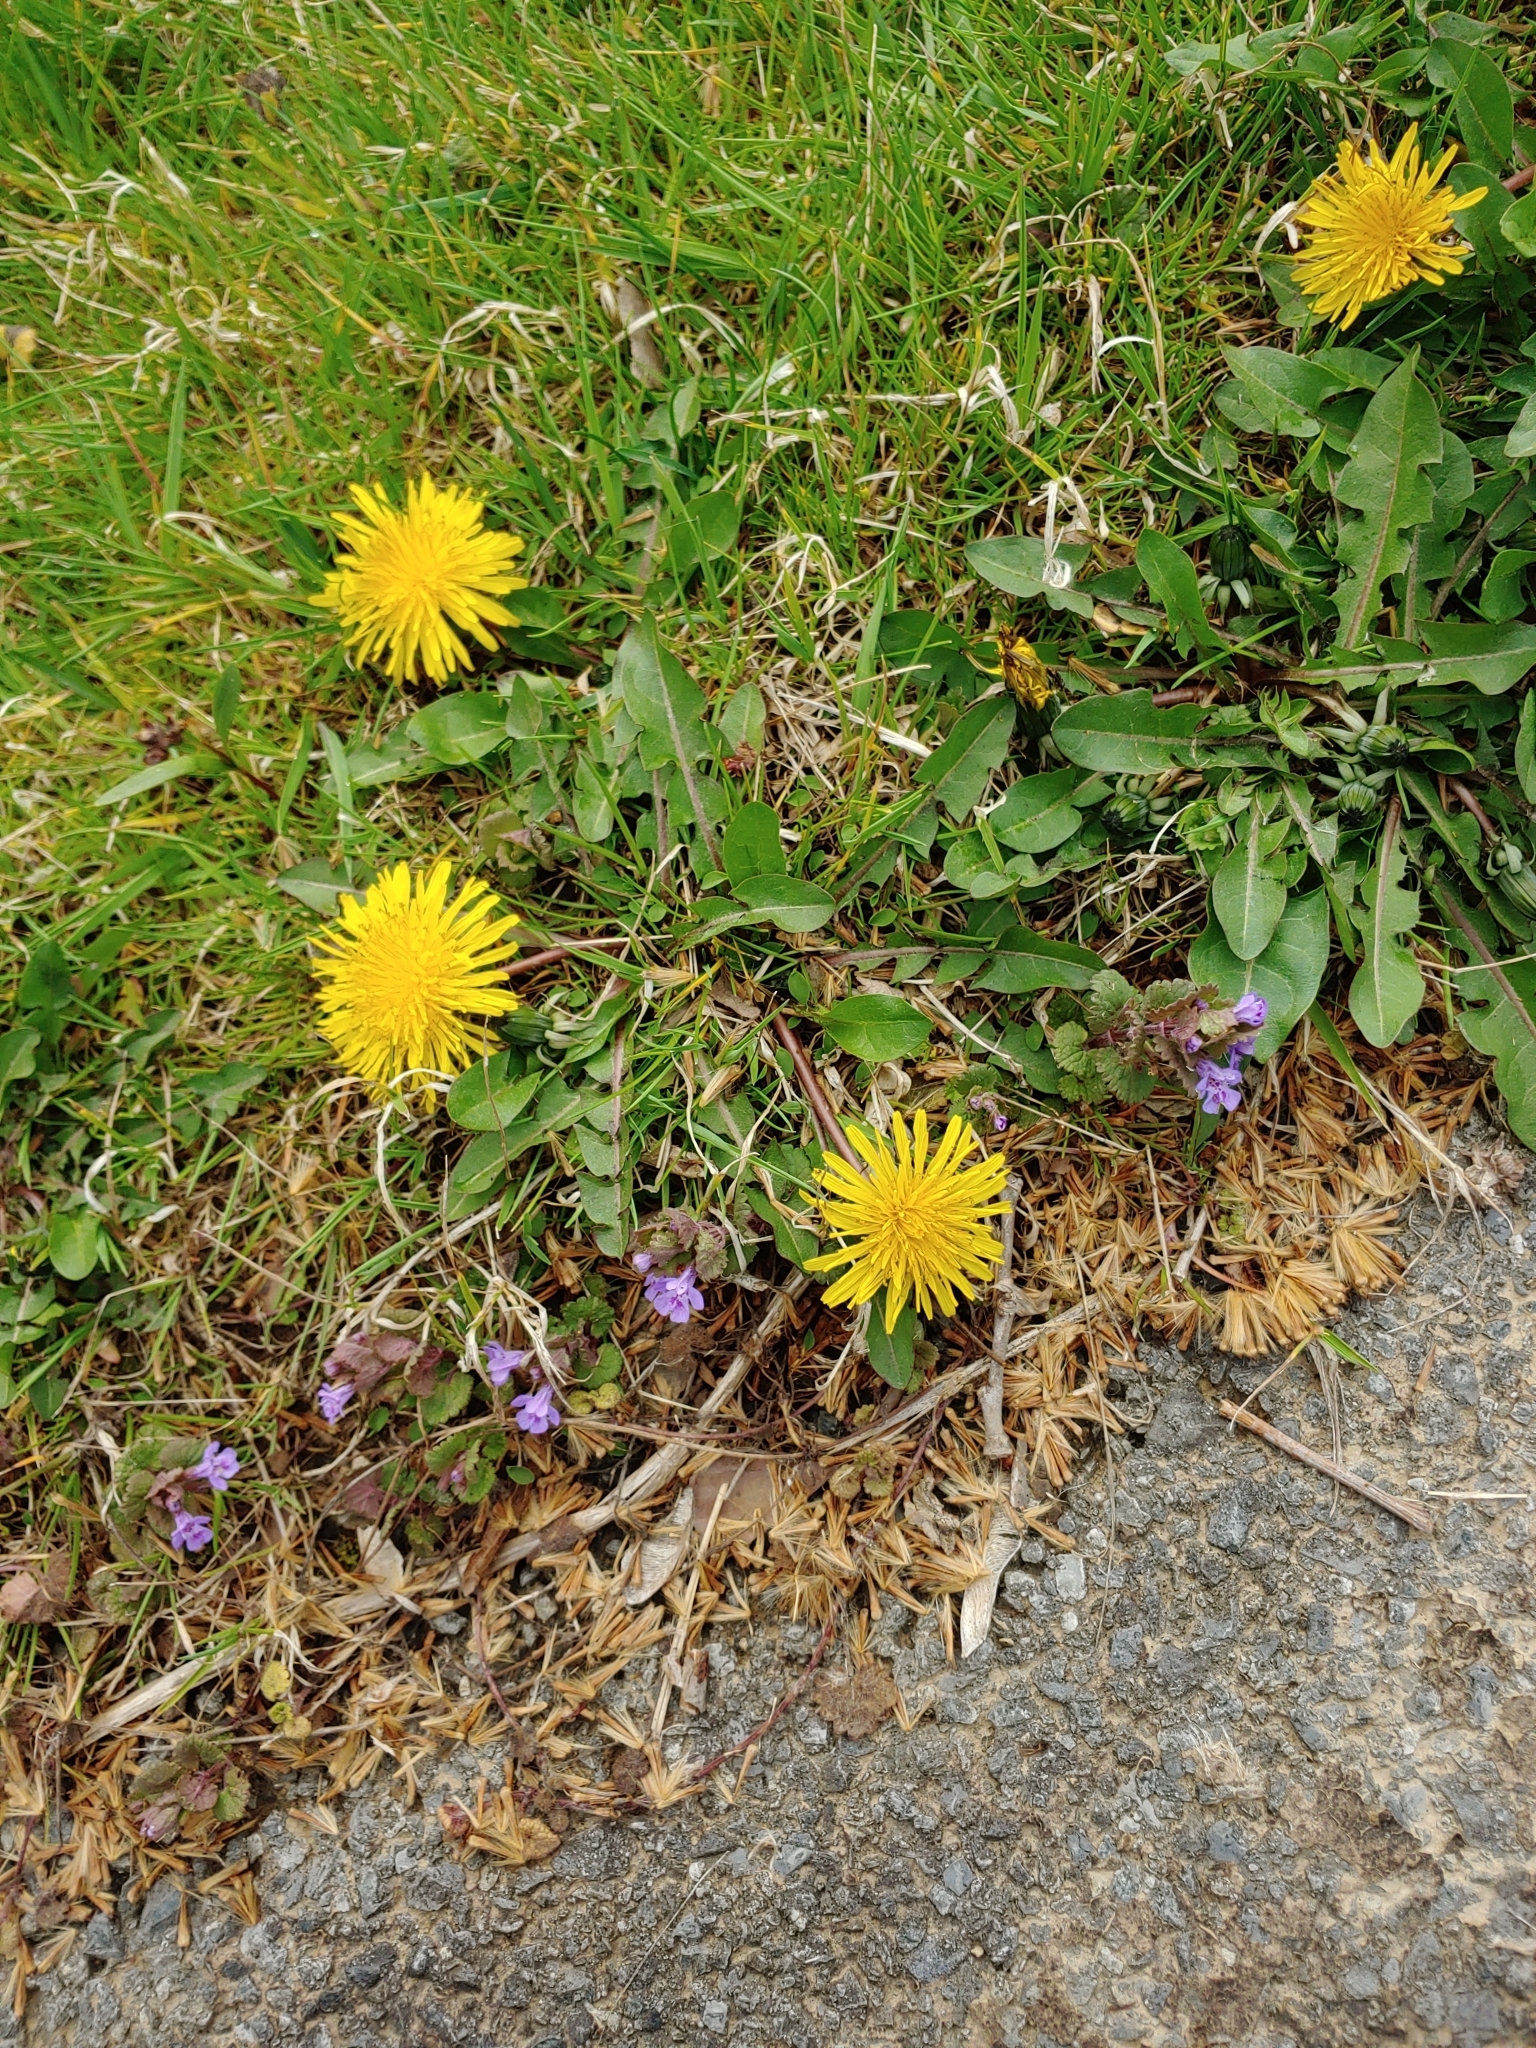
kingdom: Plantae
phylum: Tracheophyta
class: Magnoliopsida
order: Asterales
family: Asteraceae
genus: Taraxacum
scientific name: Taraxacum officinale
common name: Common dandelion
